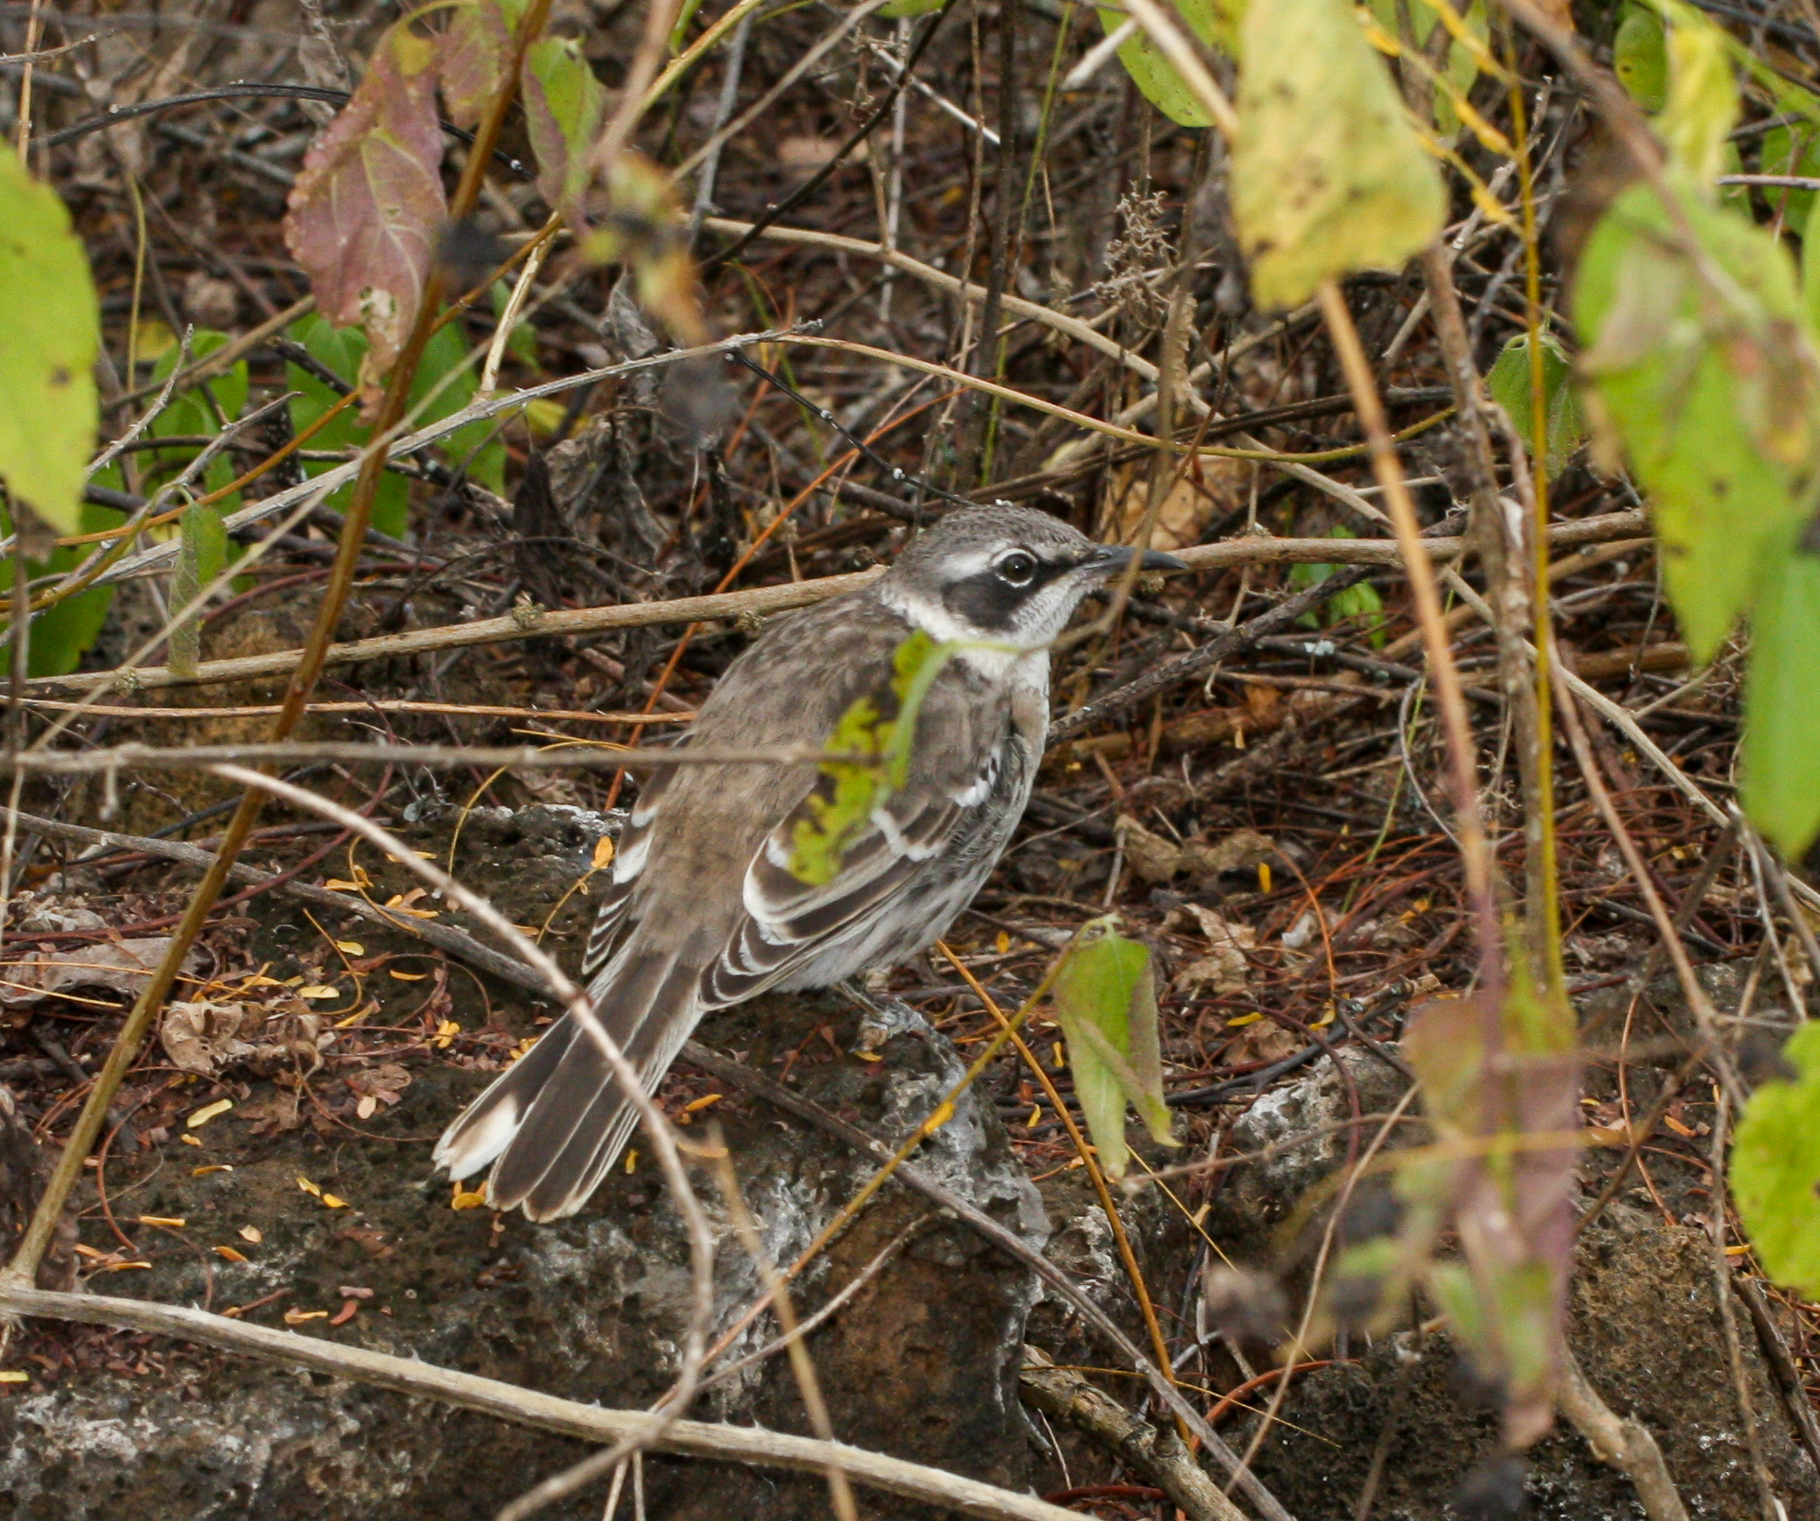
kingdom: Animalia
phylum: Chordata
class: Aves
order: Passeriformes
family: Mimidae
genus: Mimus
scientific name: Mimus parvulus
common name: Galapagos mockingbird
